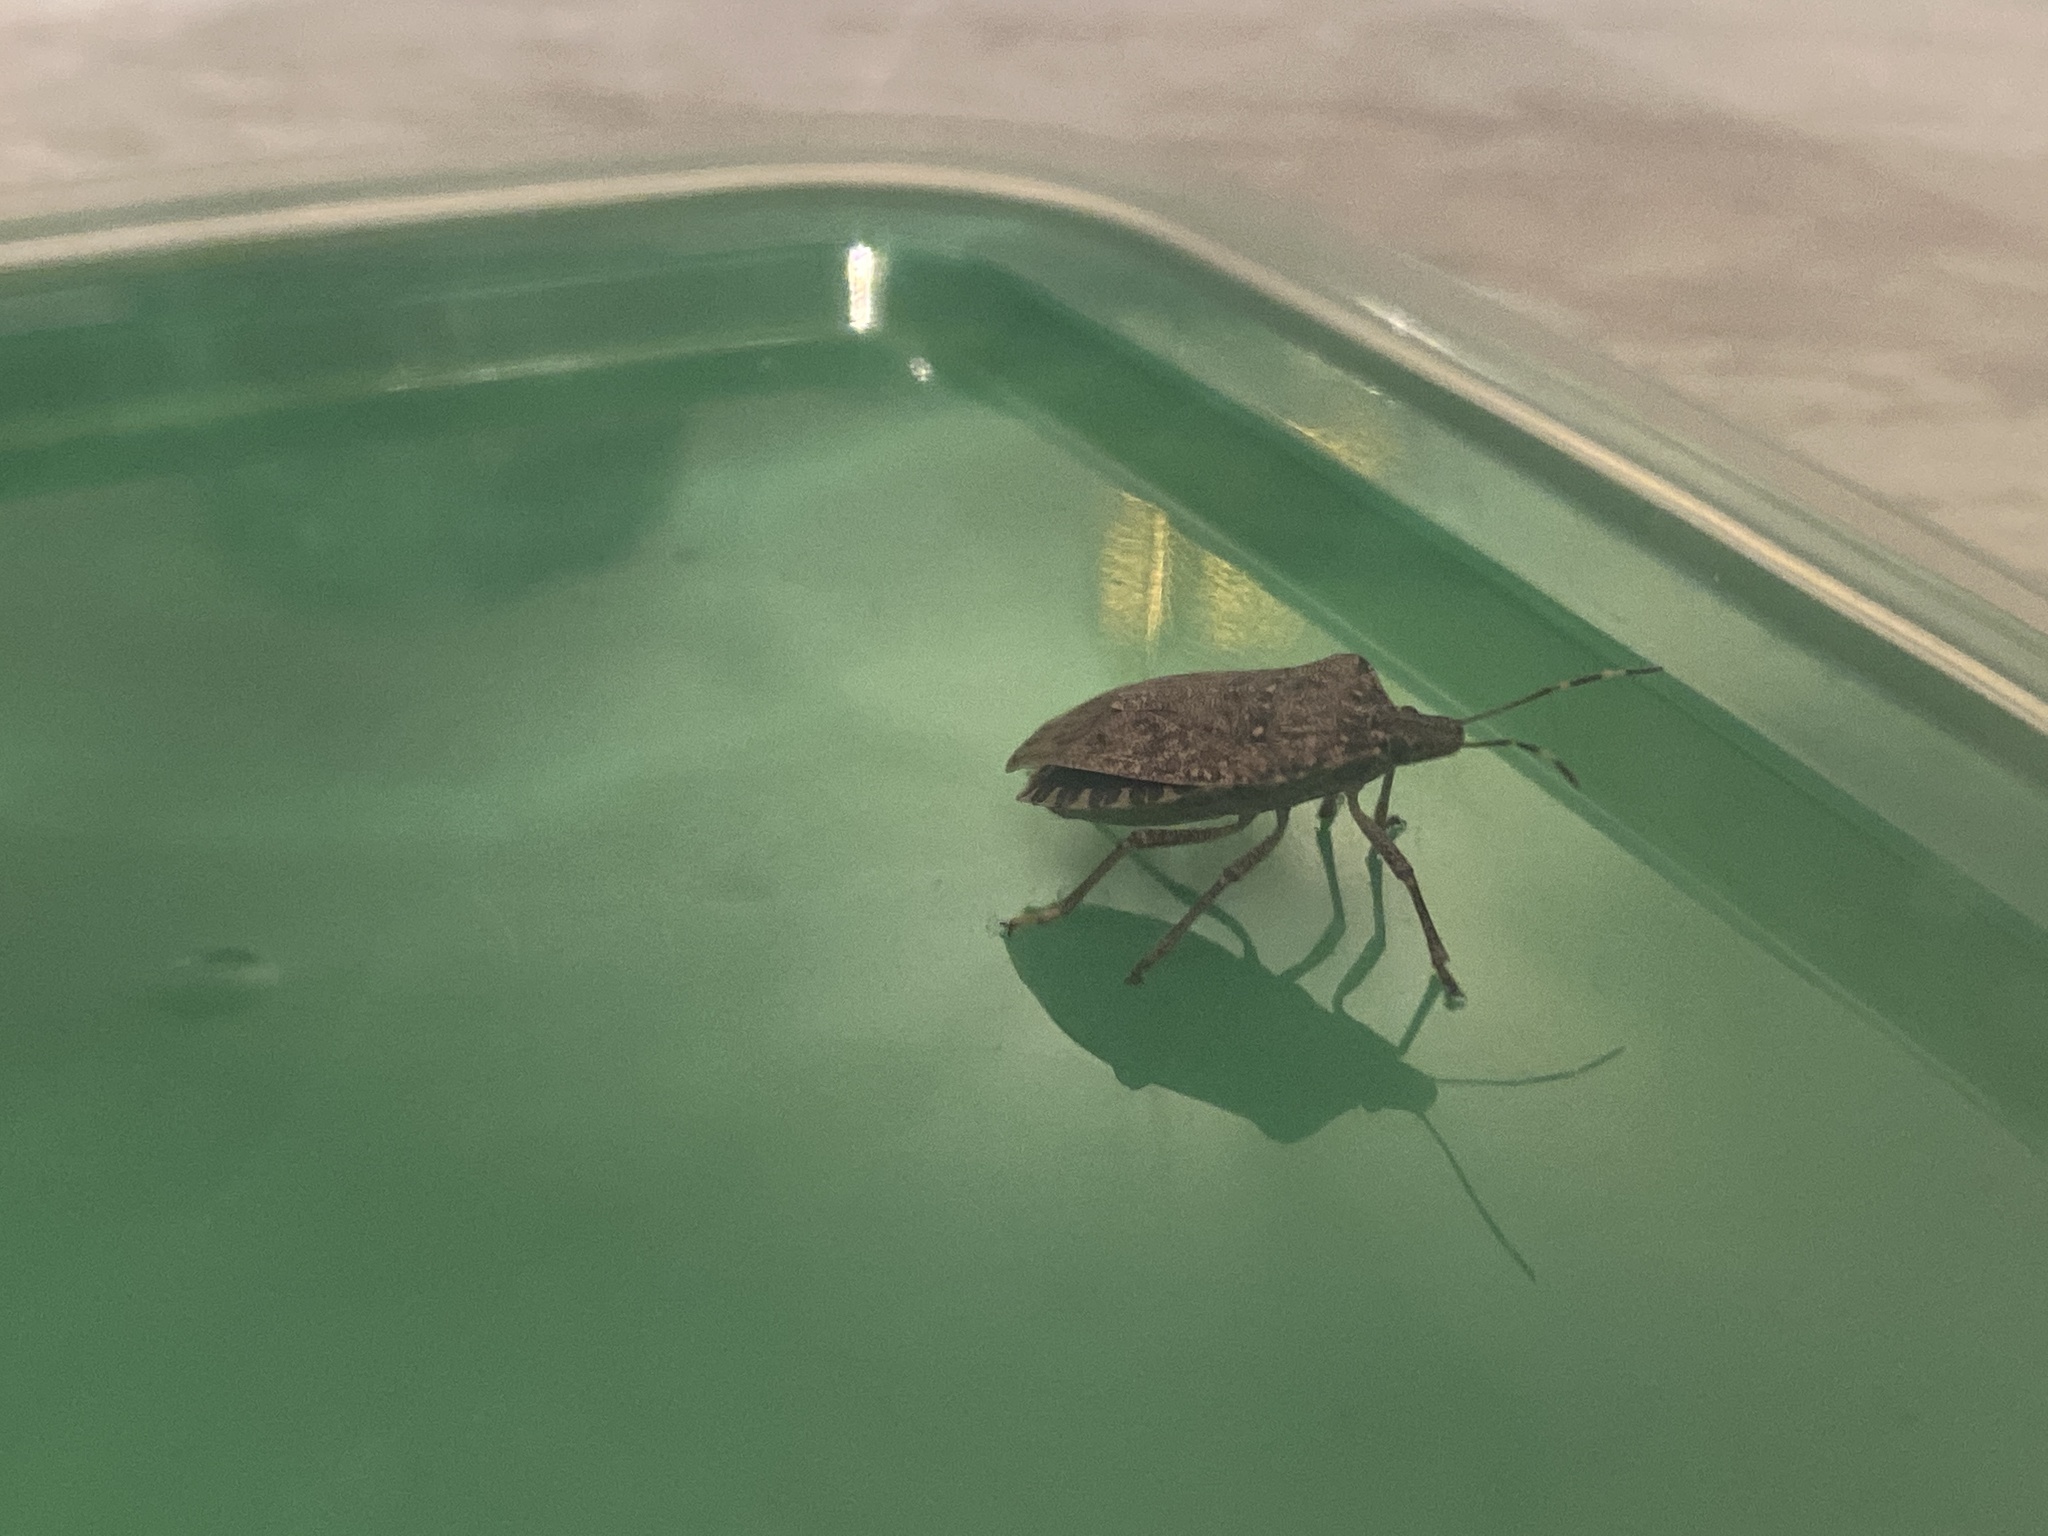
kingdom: Animalia
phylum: Arthropoda
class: Insecta
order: Hemiptera
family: Pentatomidae
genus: Halyomorpha
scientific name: Halyomorpha halys
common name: Brown marmorated stink bug
